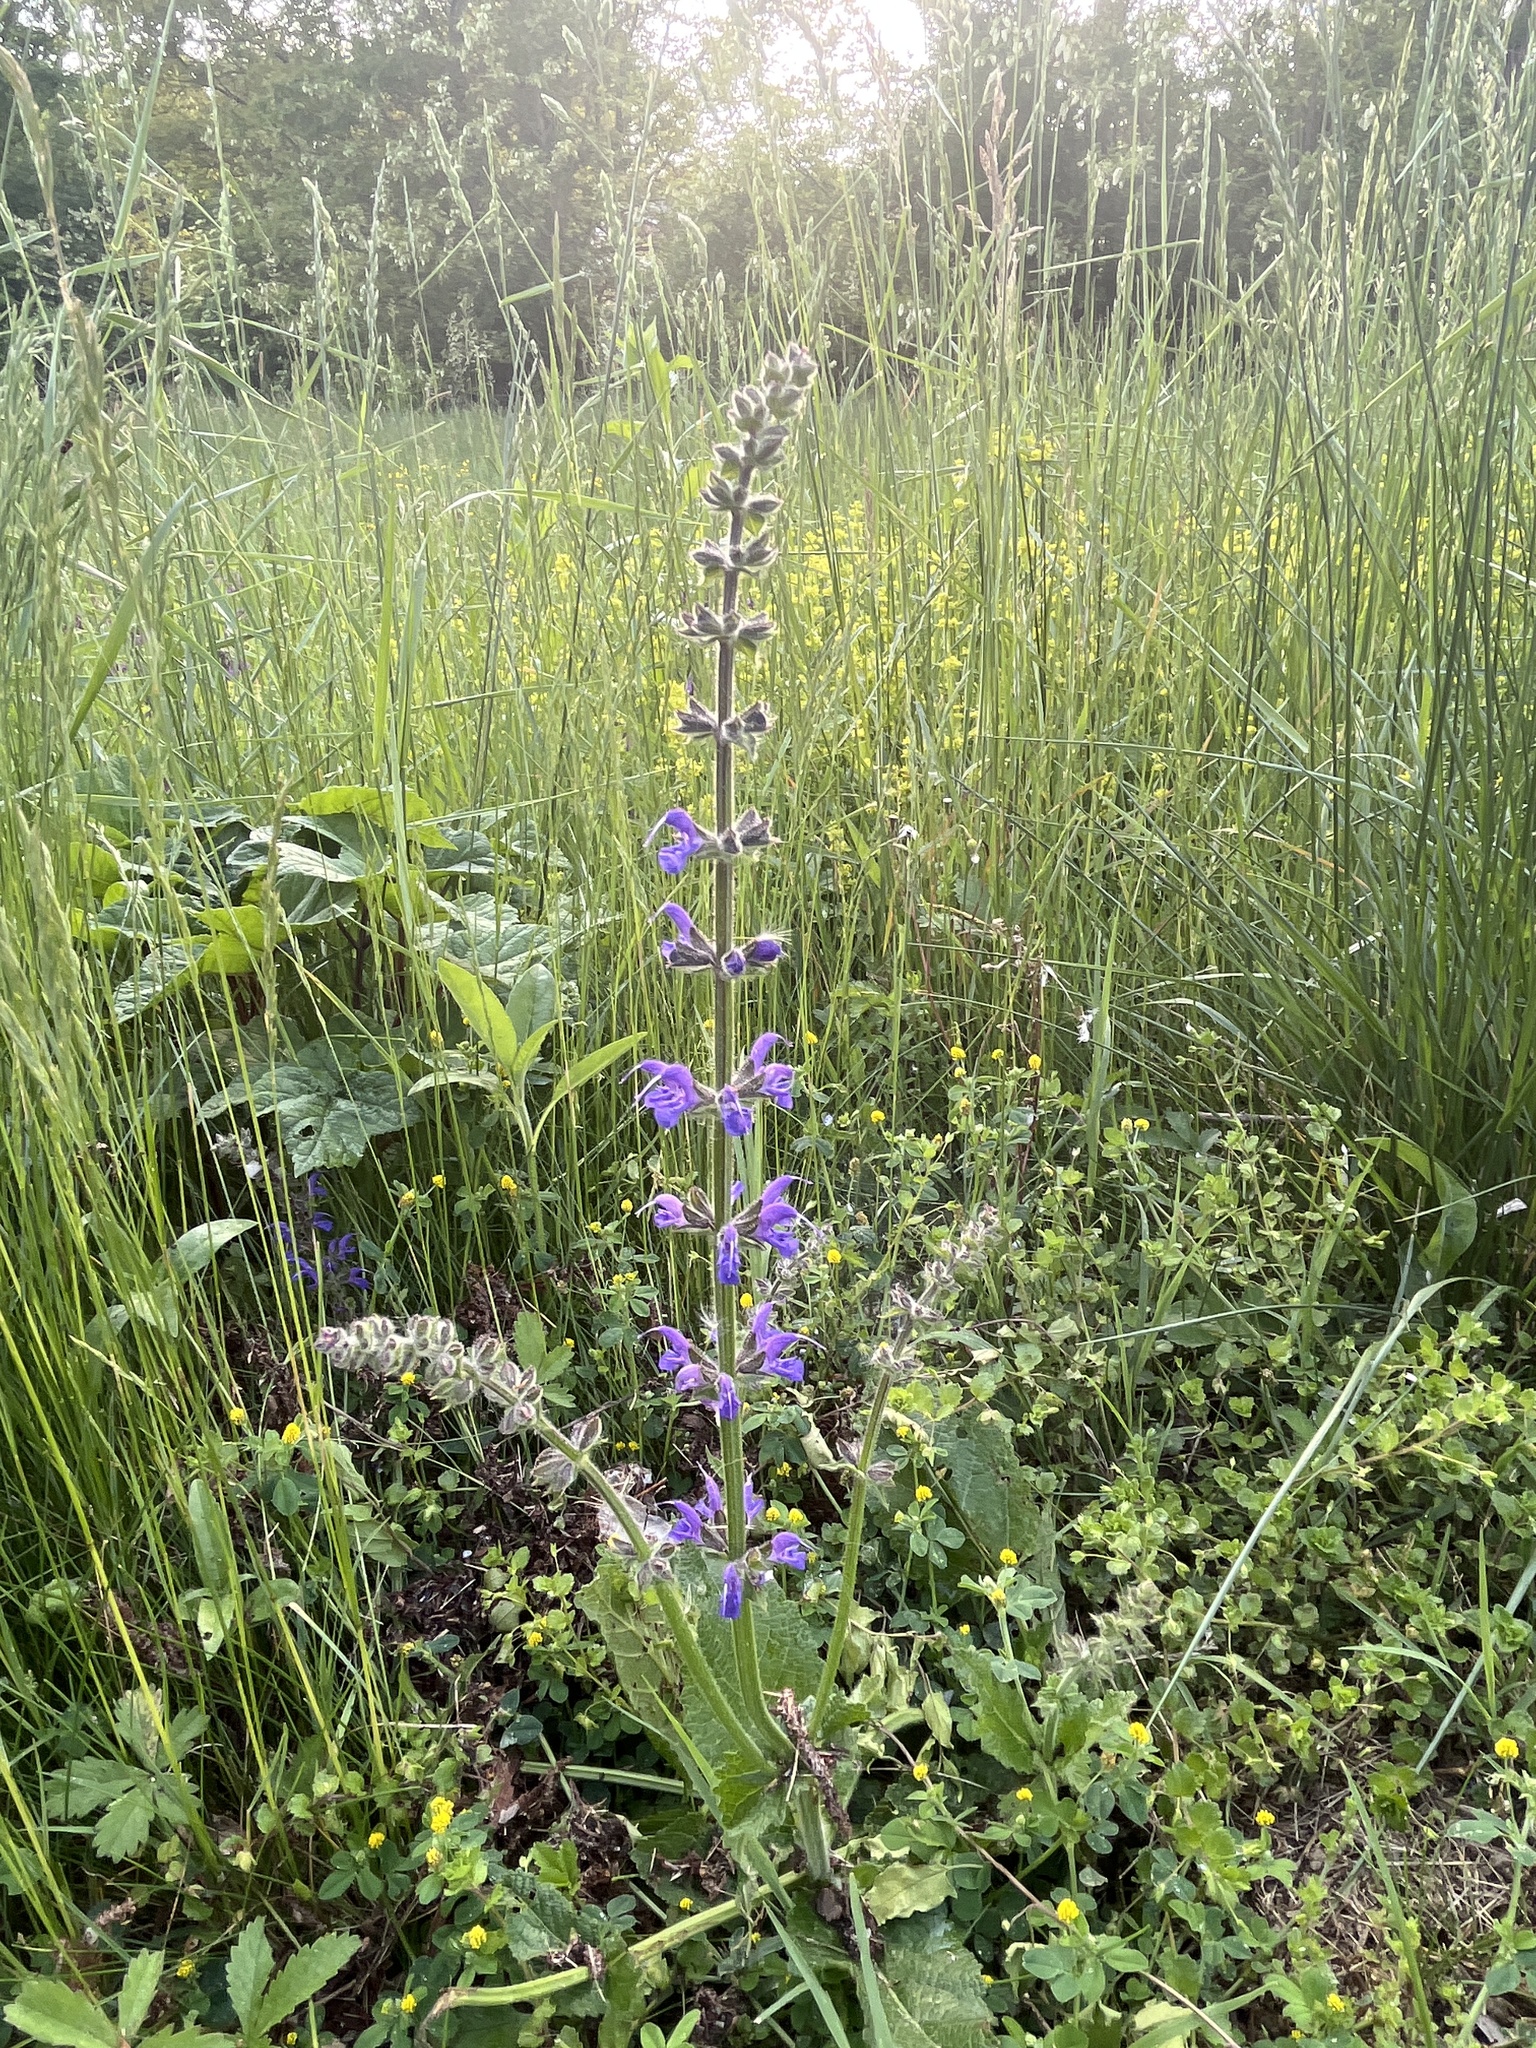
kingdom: Plantae
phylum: Tracheophyta
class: Magnoliopsida
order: Lamiales
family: Lamiaceae
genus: Salvia
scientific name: Salvia pratensis
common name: Meadow sage
